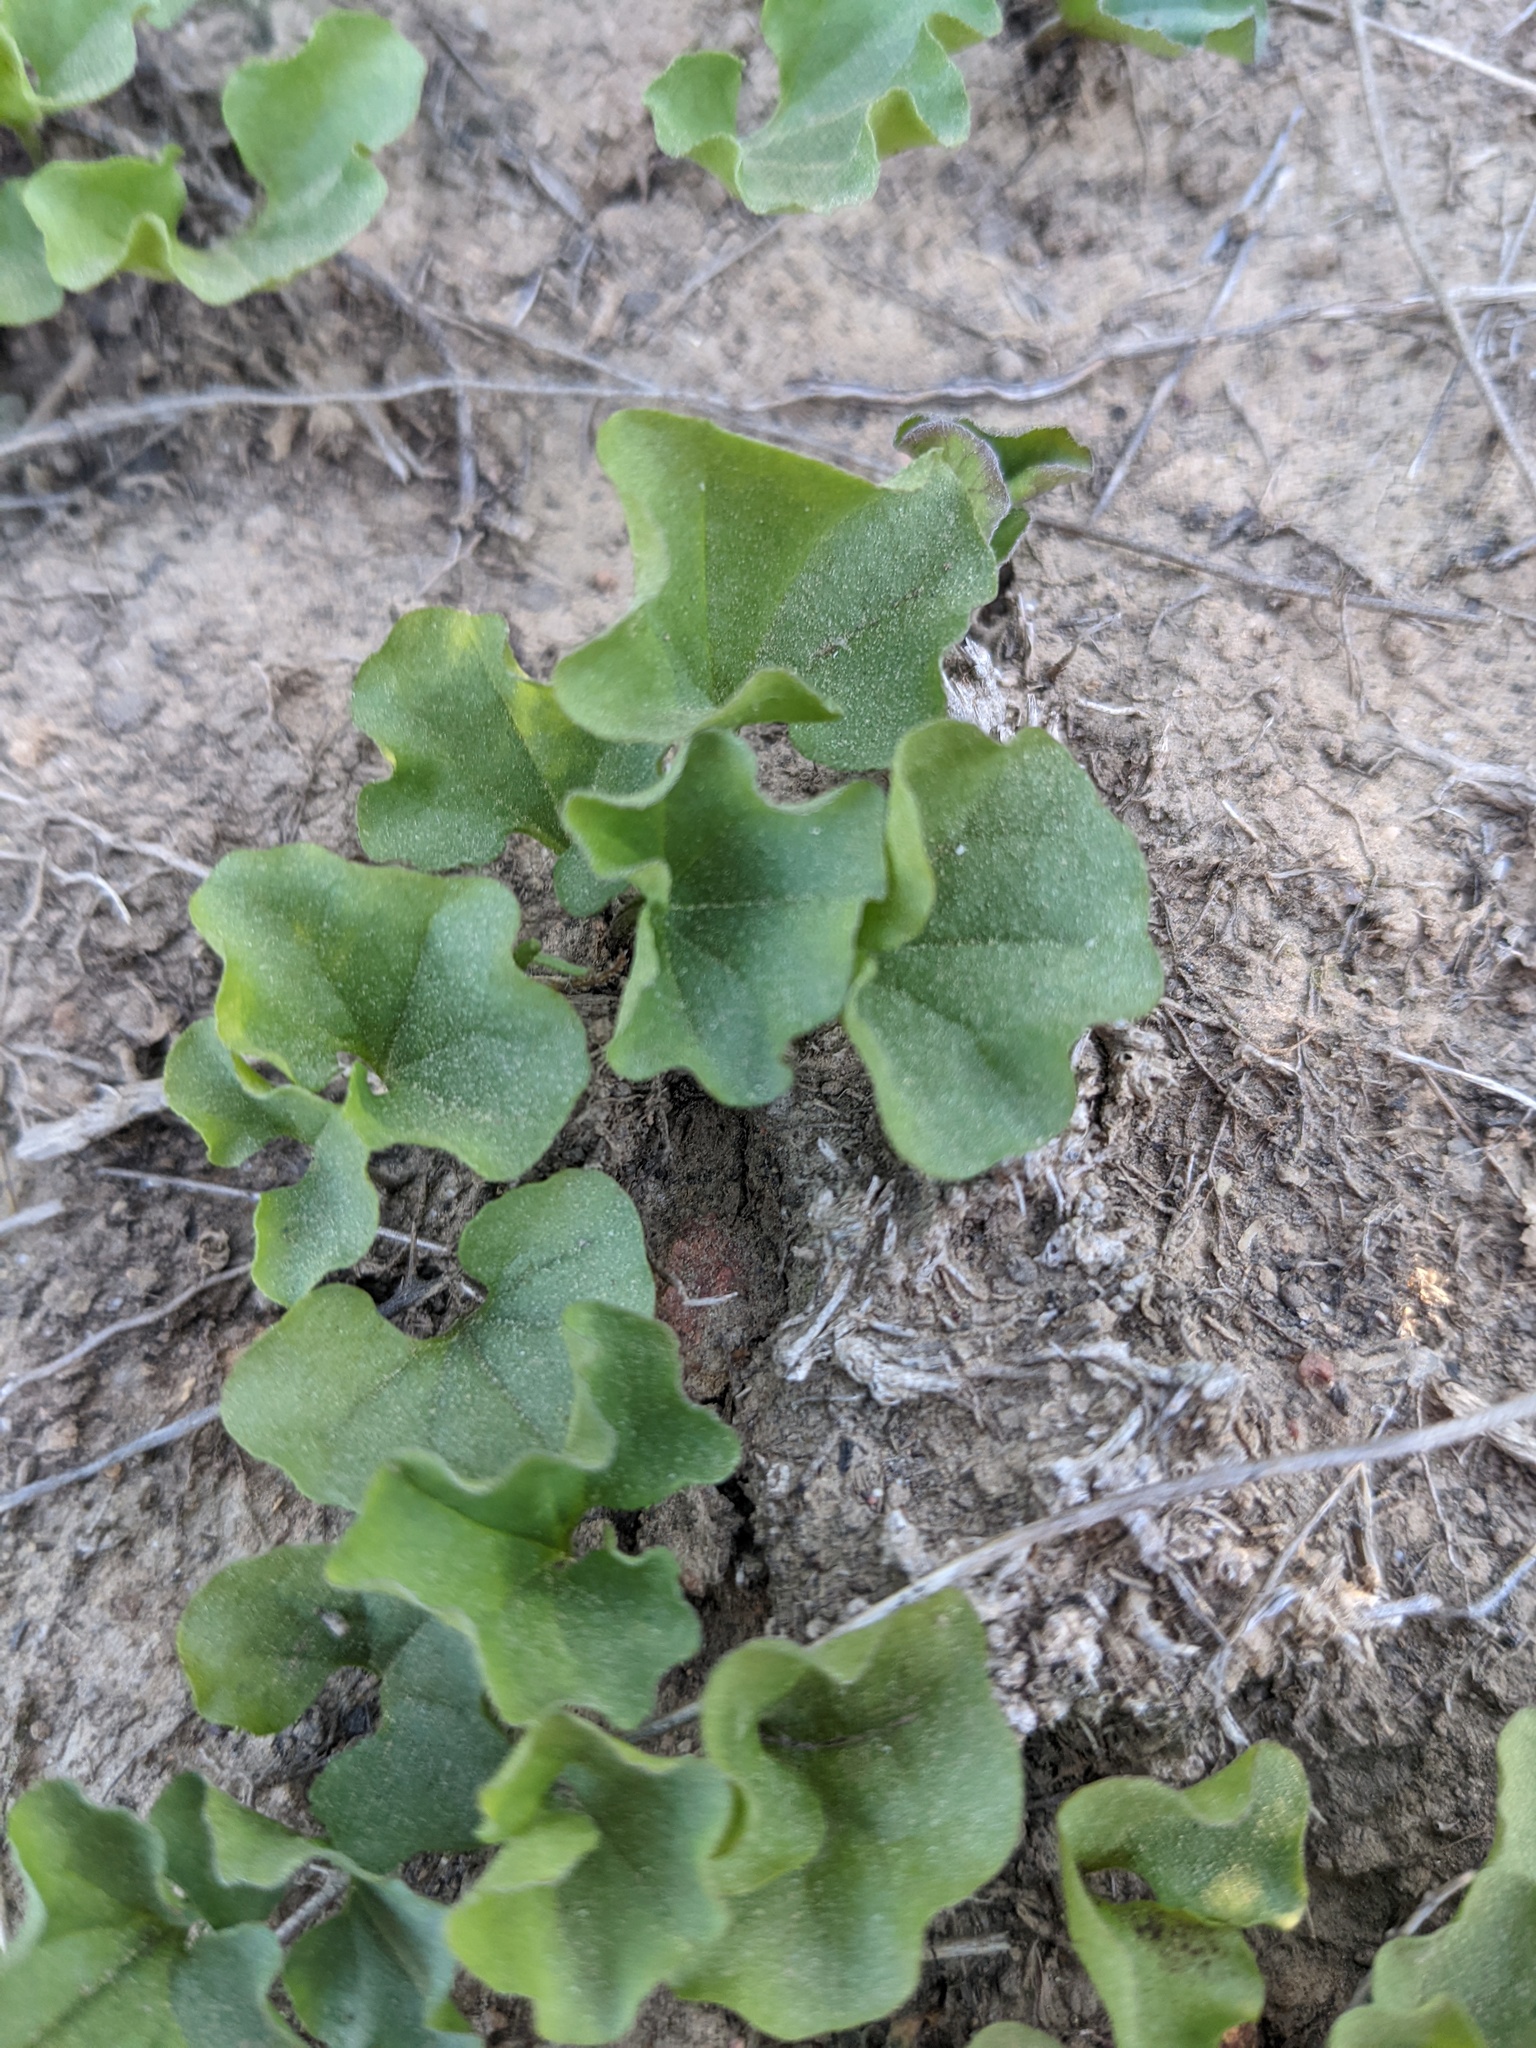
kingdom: Plantae
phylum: Tracheophyta
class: Magnoliopsida
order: Solanales
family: Convolvulaceae
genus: Dichondra
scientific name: Dichondra occidentalis
